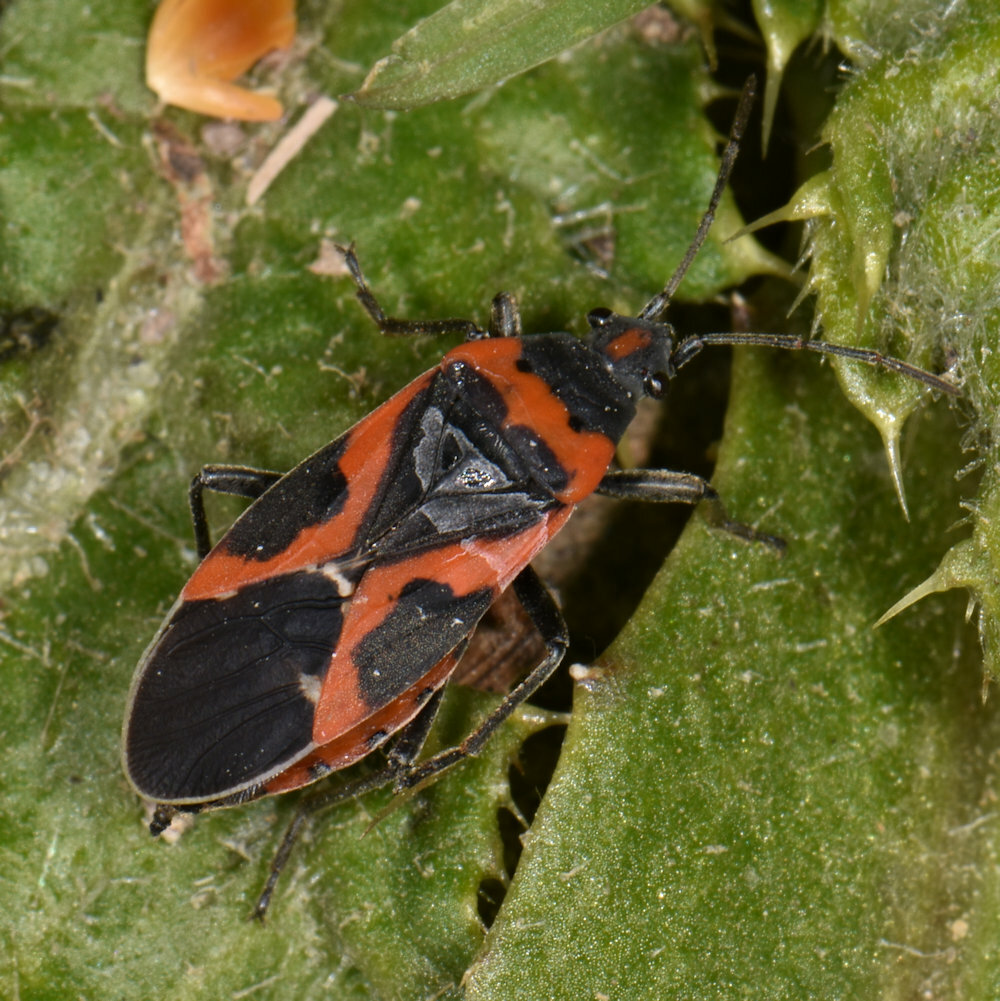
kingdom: Animalia
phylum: Arthropoda
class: Insecta
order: Hemiptera
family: Lygaeidae
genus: Lygaeus
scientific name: Lygaeus kalmii
